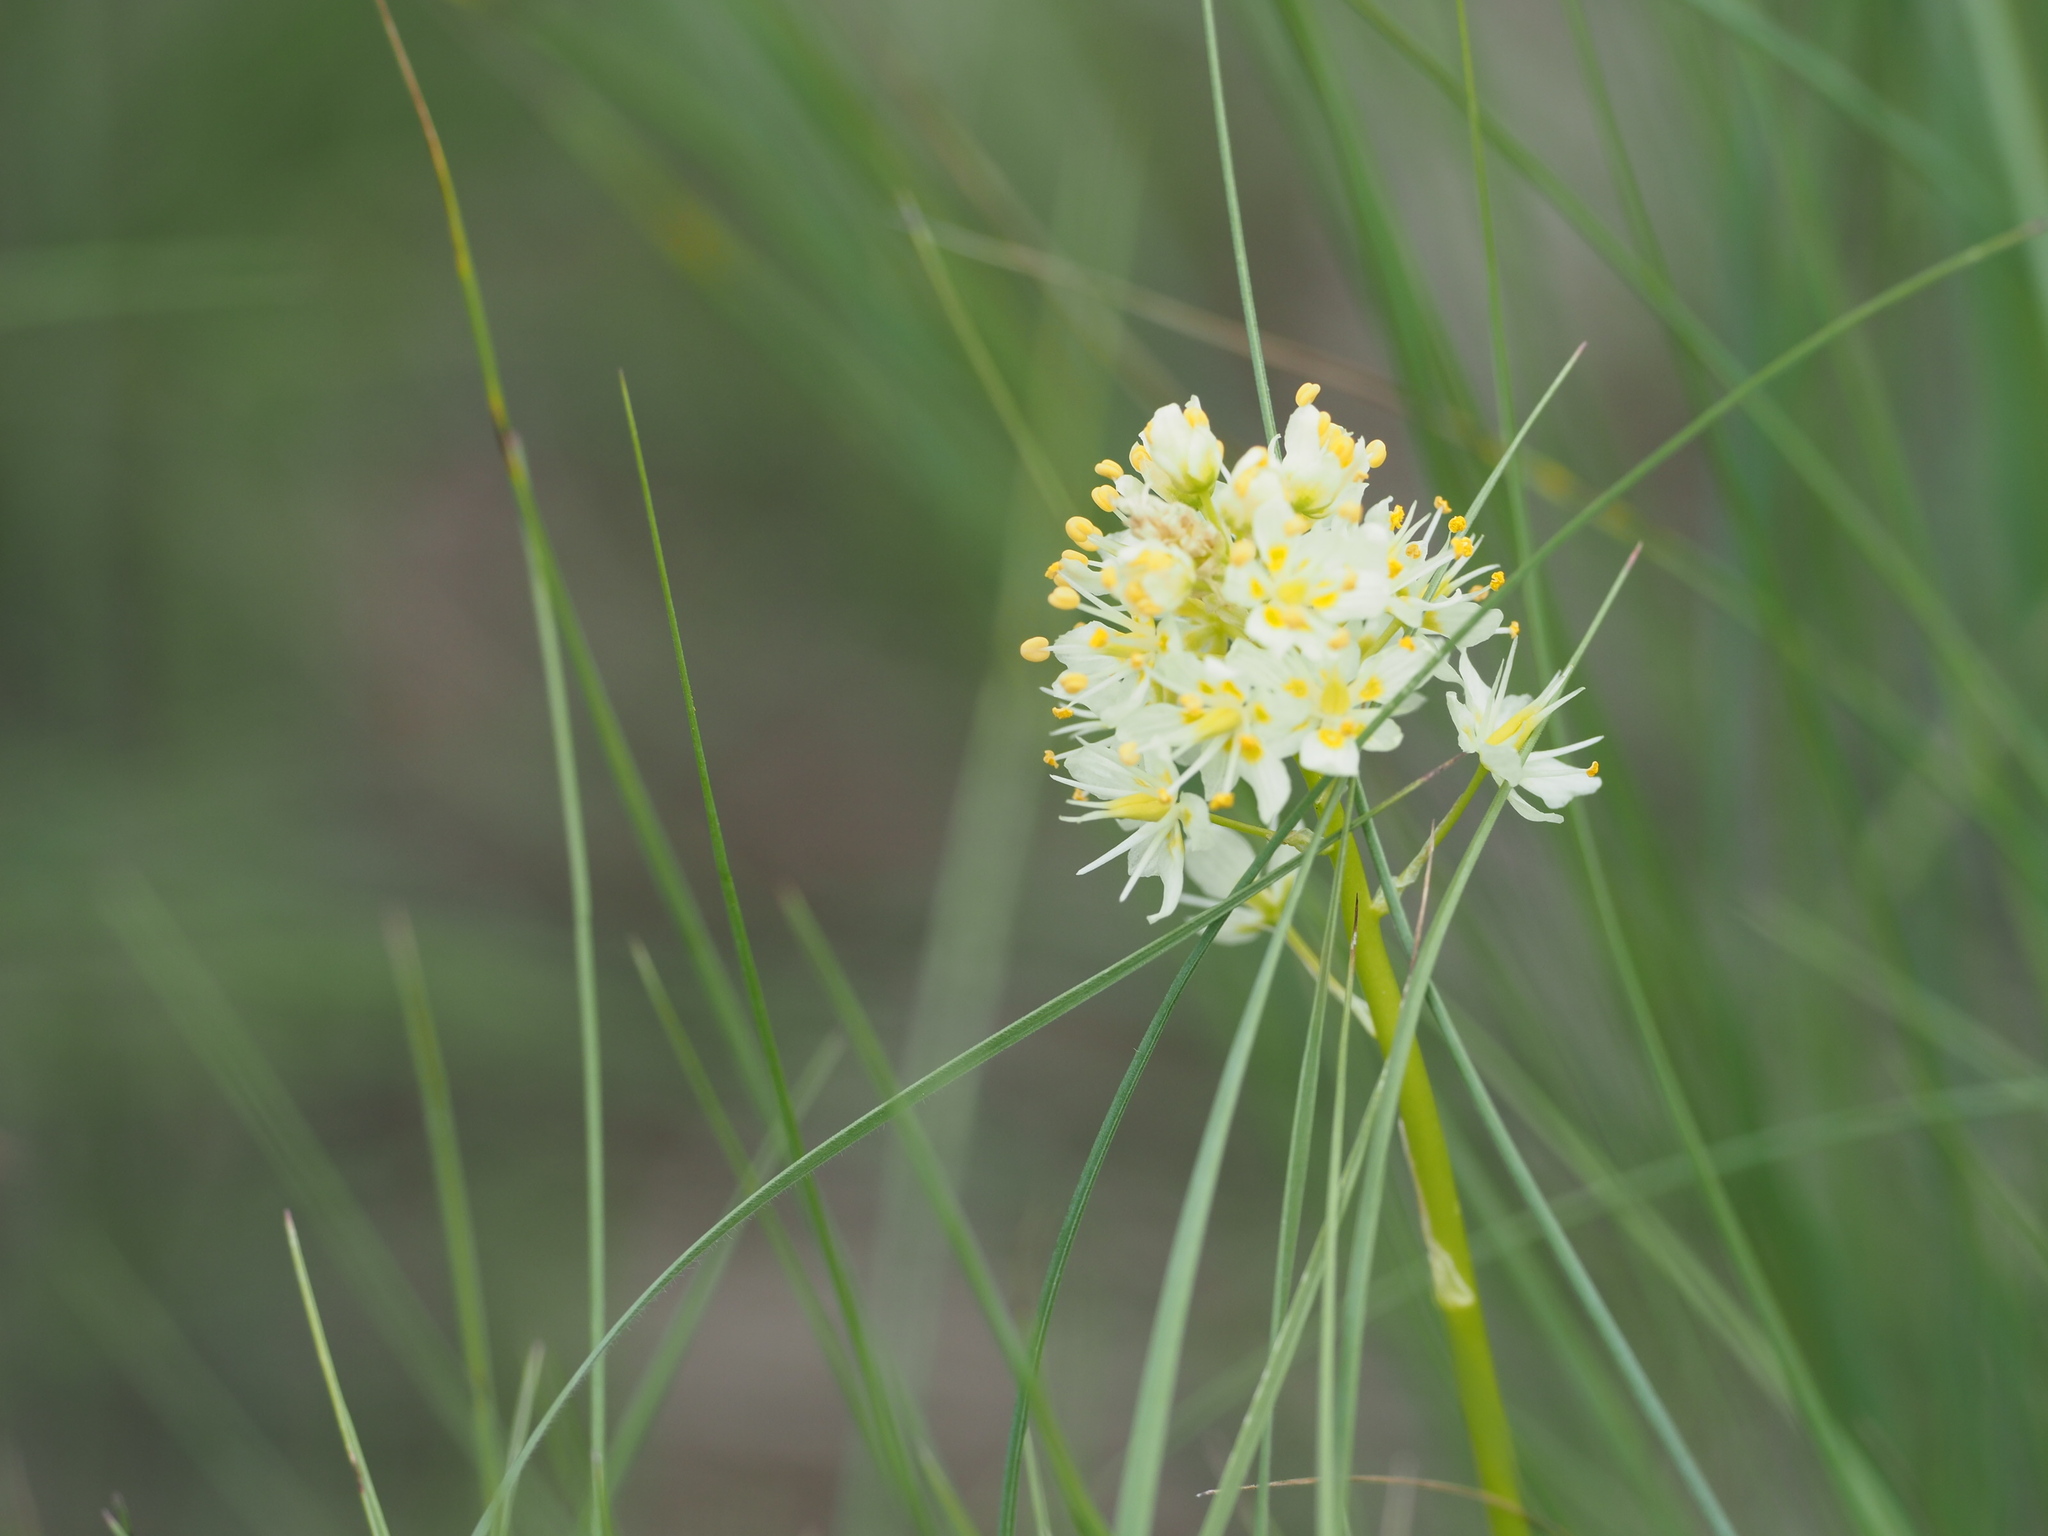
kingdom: Plantae
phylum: Tracheophyta
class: Liliopsida
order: Liliales
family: Melanthiaceae
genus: Toxicoscordion
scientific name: Toxicoscordion venenosum
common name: Meadow death camas
